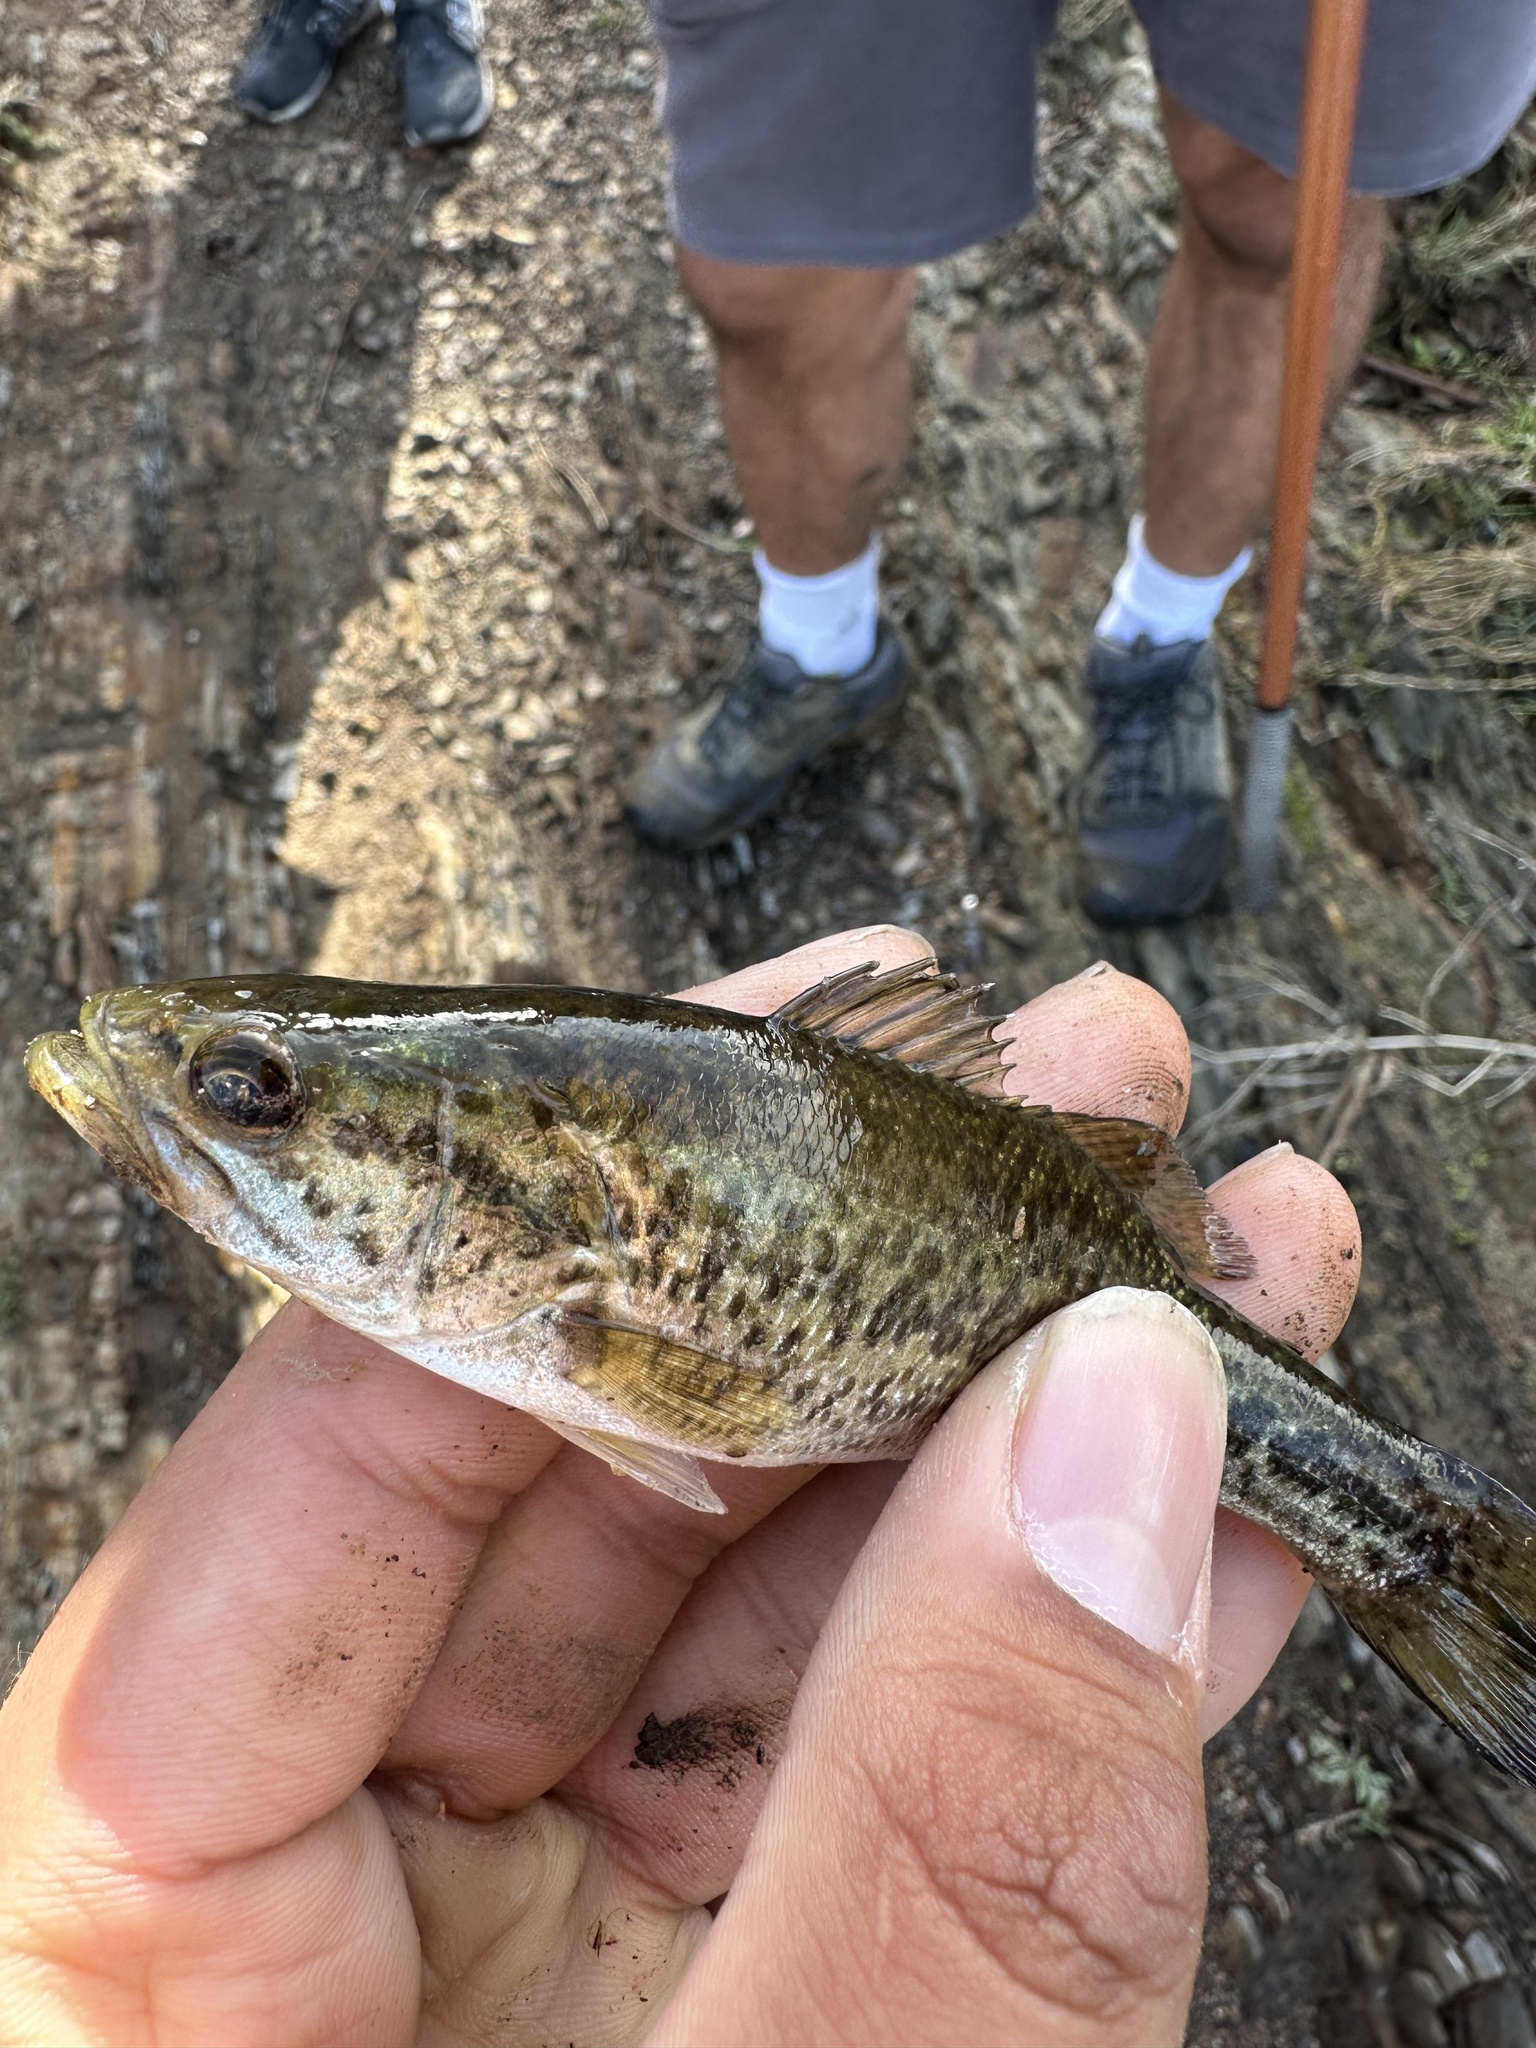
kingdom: Animalia
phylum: Chordata
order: Perciformes
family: Centrarchidae
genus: Micropterus
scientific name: Micropterus
